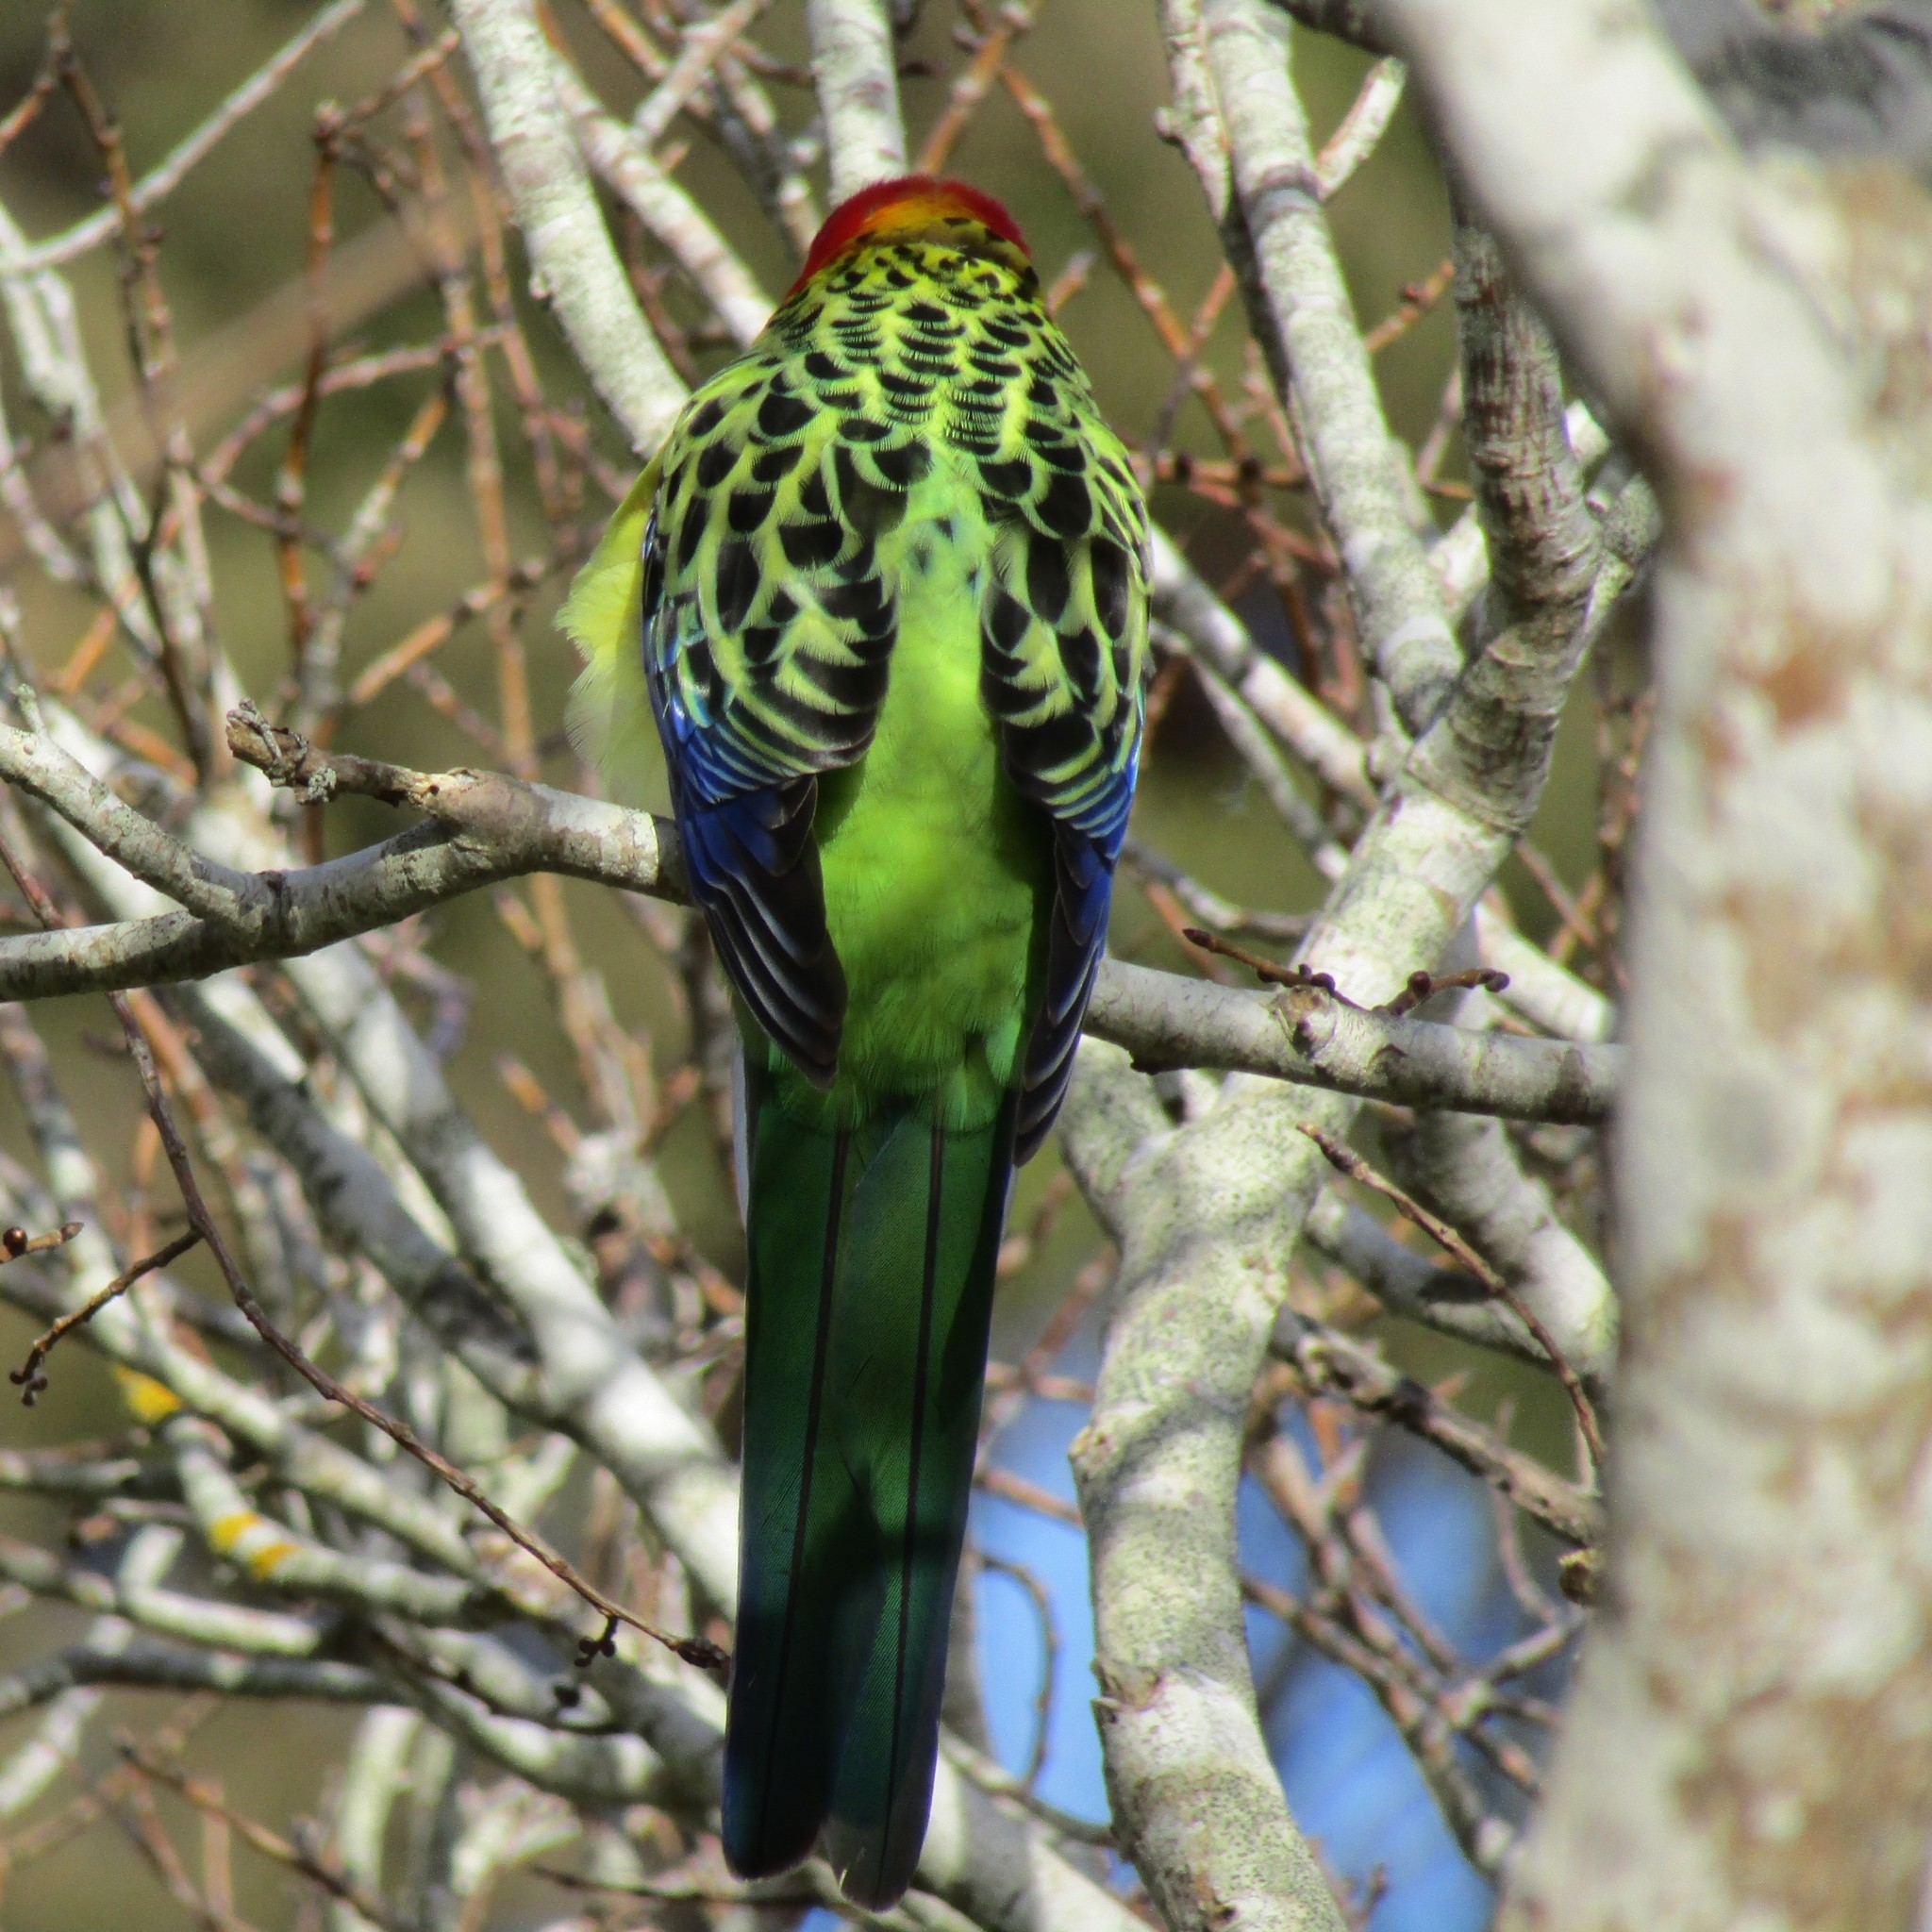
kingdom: Animalia
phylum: Chordata
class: Aves
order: Psittaciformes
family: Psittacidae
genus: Platycercus
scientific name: Platycercus eximius
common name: Eastern rosella
